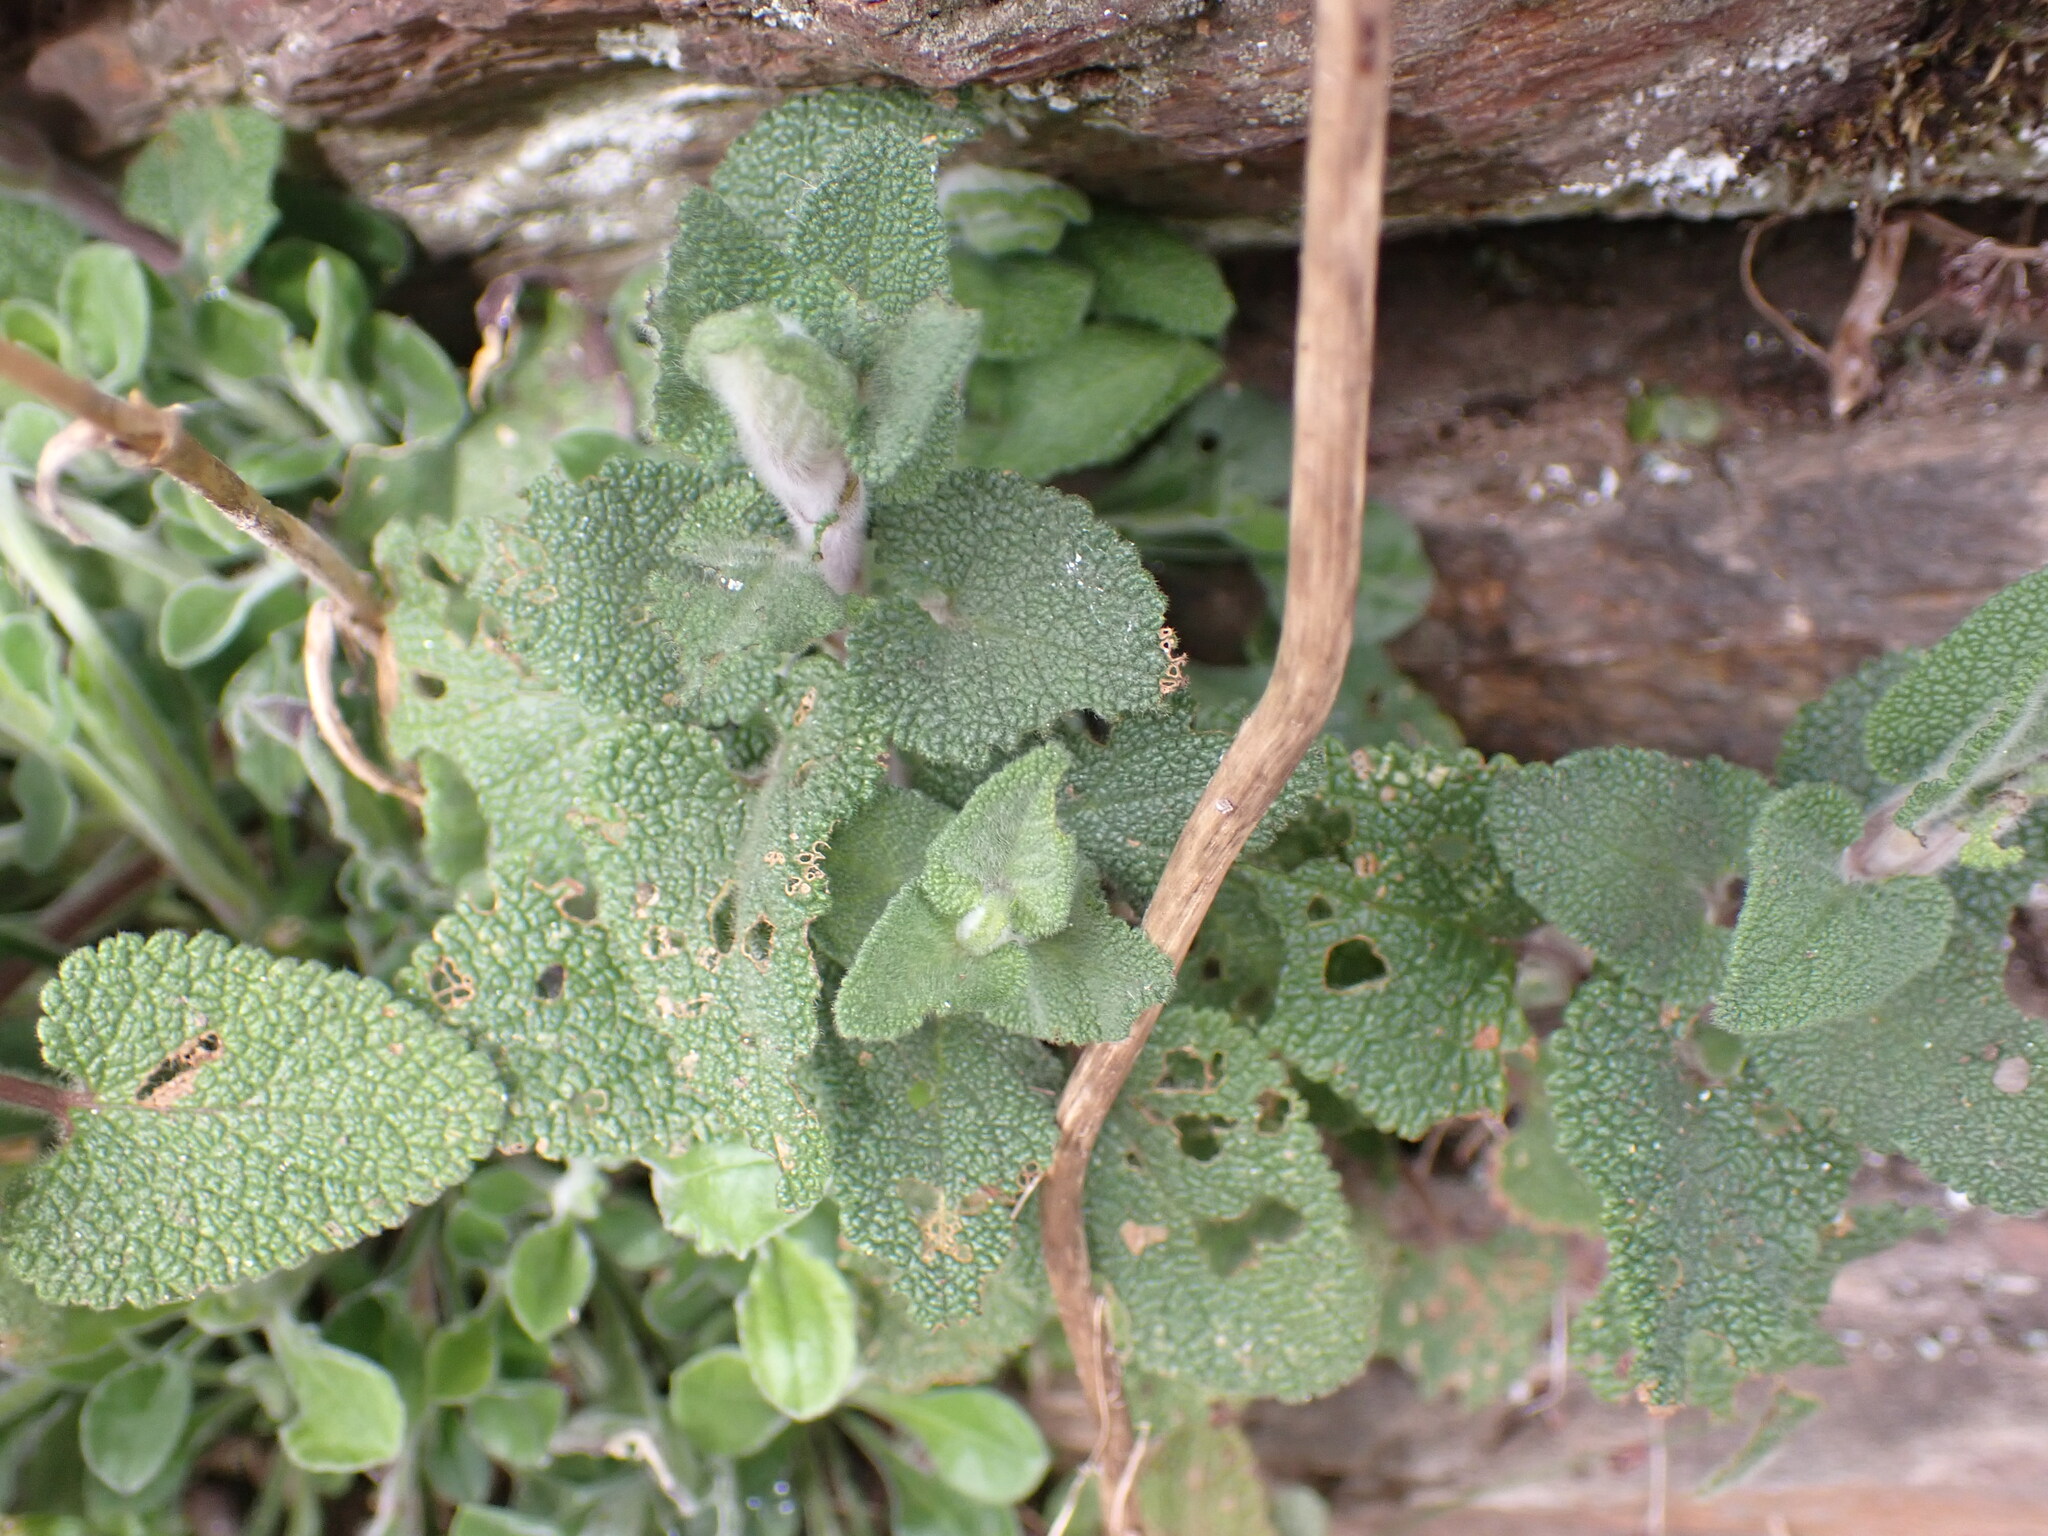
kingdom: Plantae
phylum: Tracheophyta
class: Magnoliopsida
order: Lamiales
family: Lamiaceae
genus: Teucrium
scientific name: Teucrium scorodonia
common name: Woodland germander
